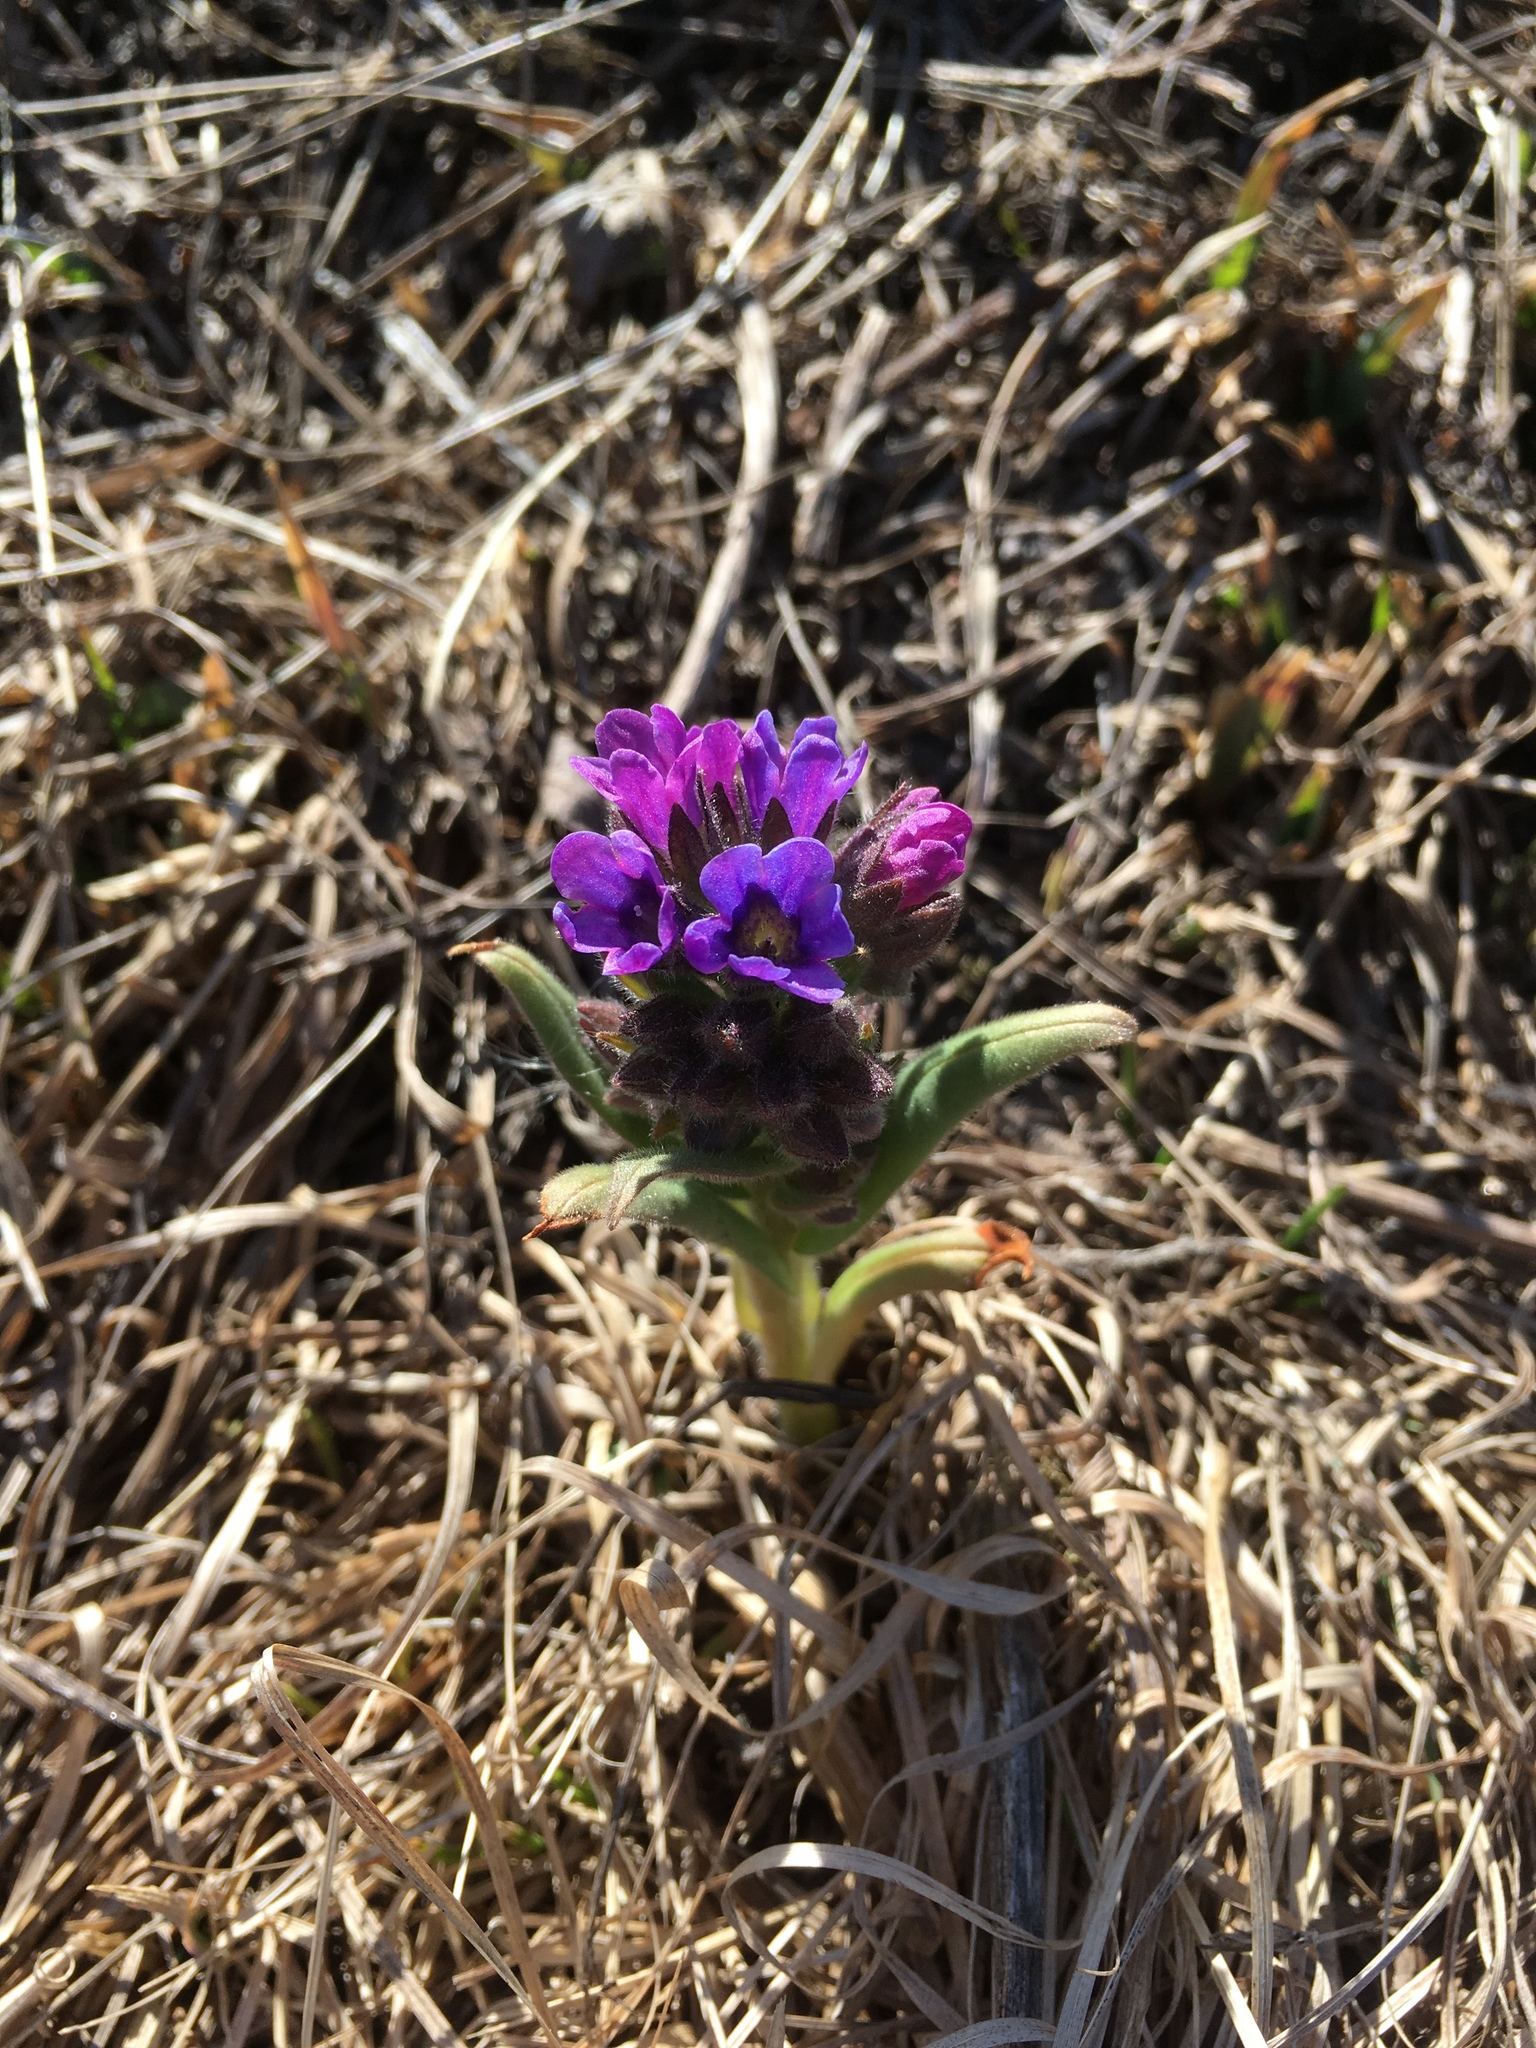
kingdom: Plantae
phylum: Tracheophyta
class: Magnoliopsida
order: Boraginales
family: Boraginaceae
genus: Pulmonaria
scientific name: Pulmonaria angustifolia
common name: Blue cowslip
